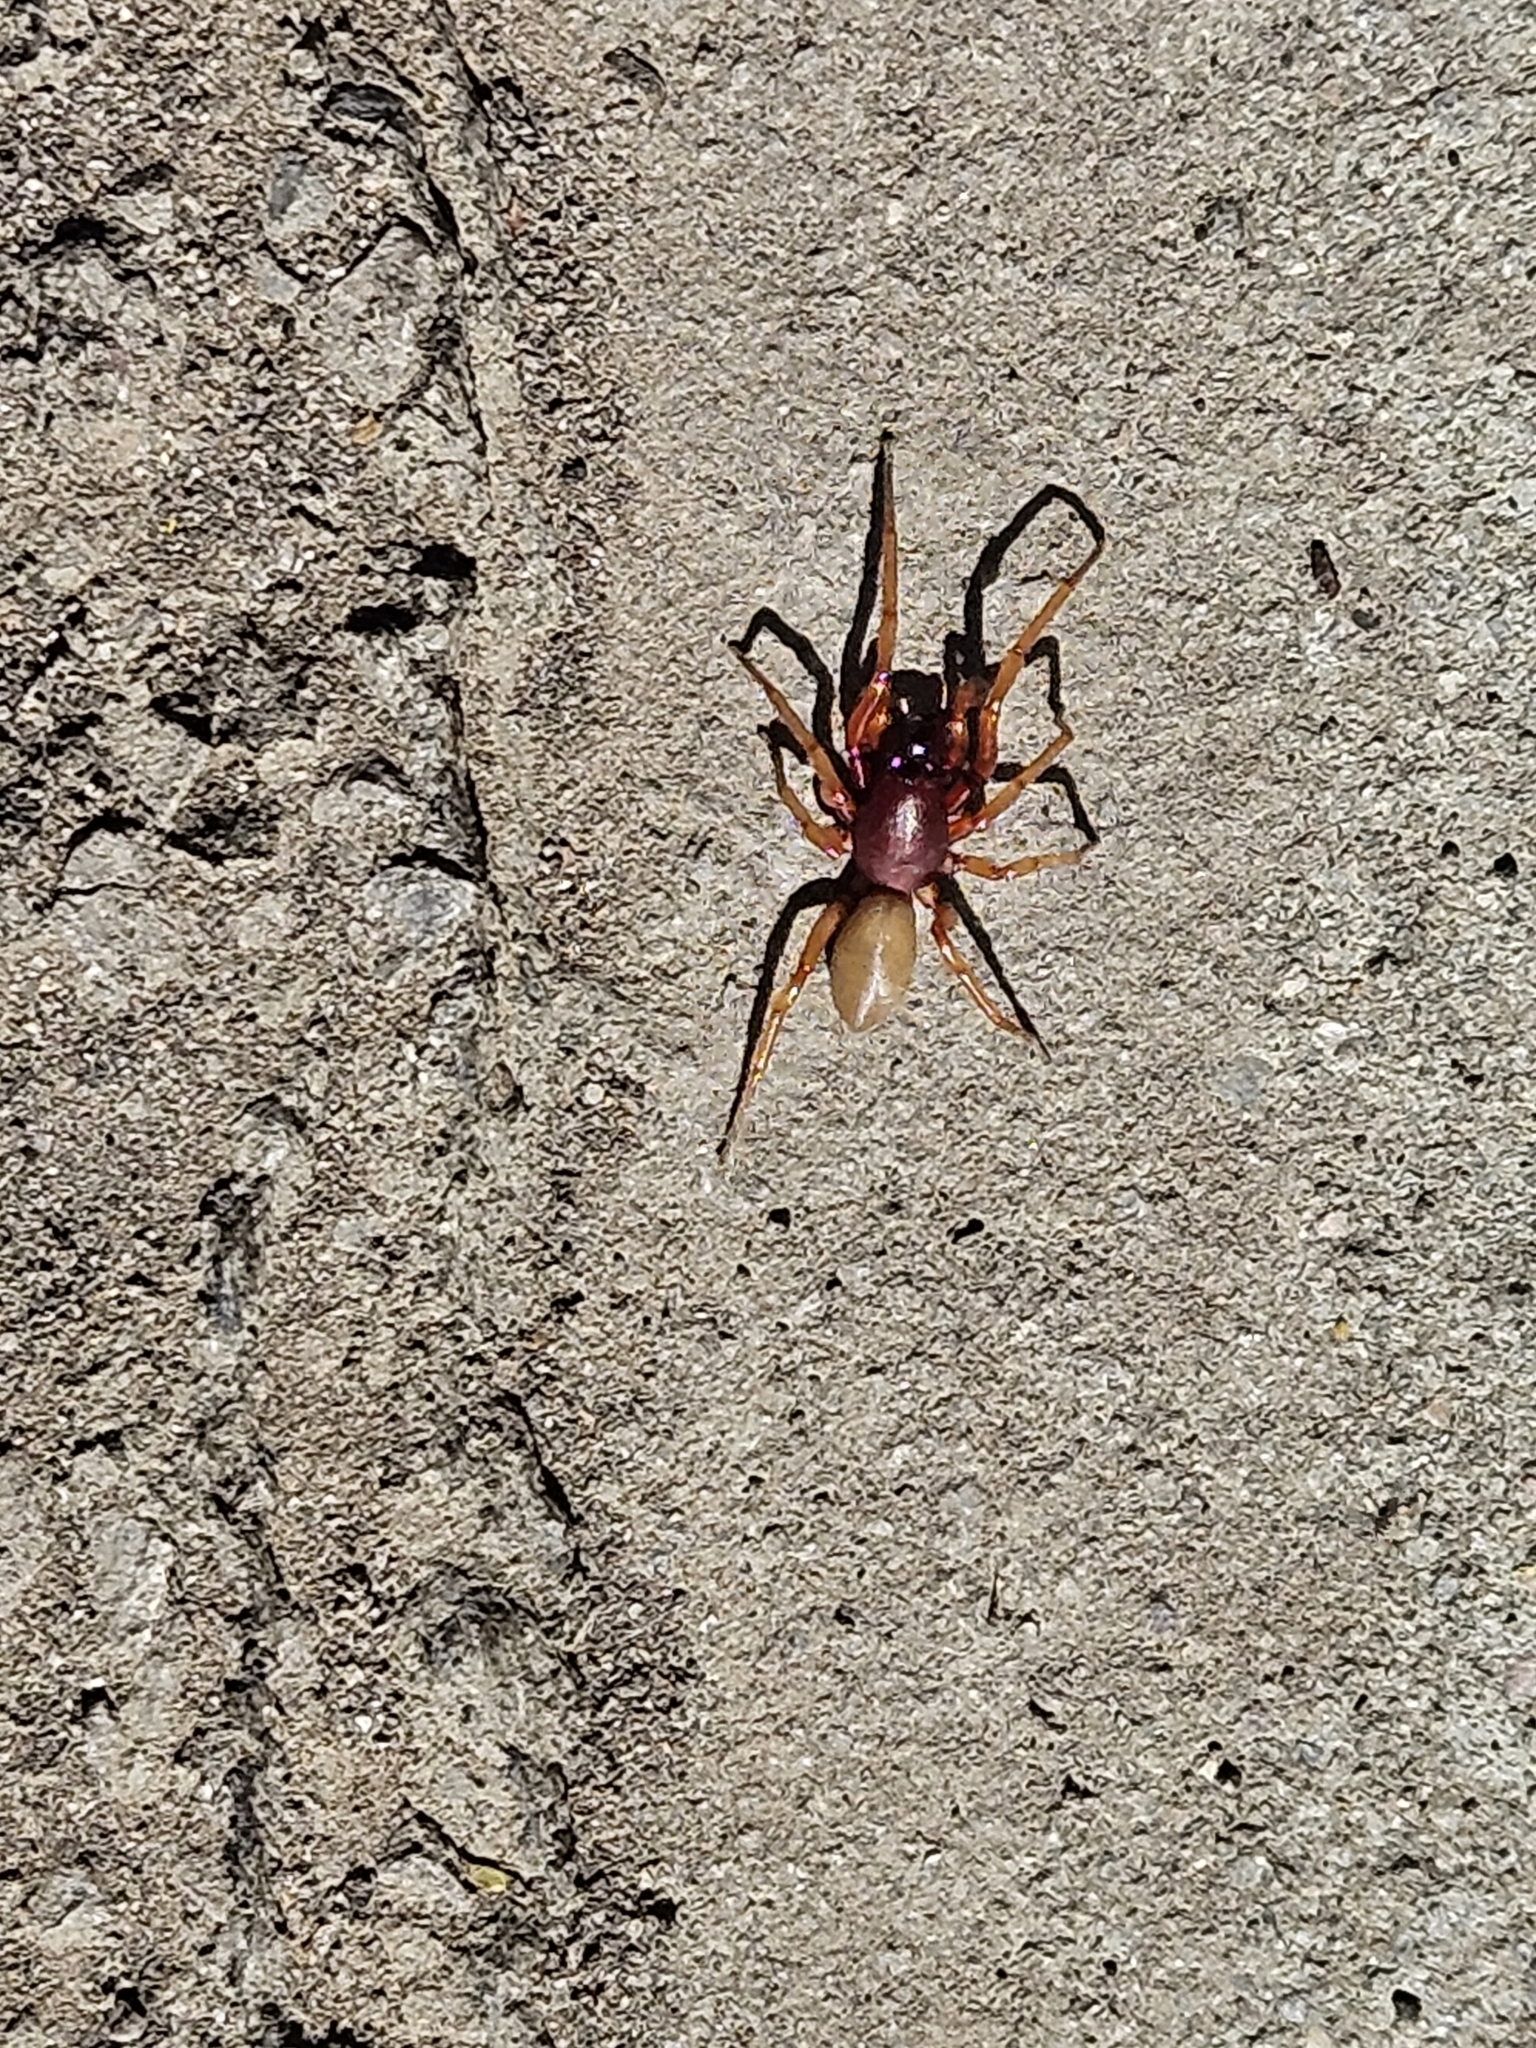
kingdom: Animalia
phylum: Arthropoda
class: Arachnida
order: Araneae
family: Dysderidae
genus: Dysdera
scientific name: Dysdera crocata
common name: Woodlouse spider
